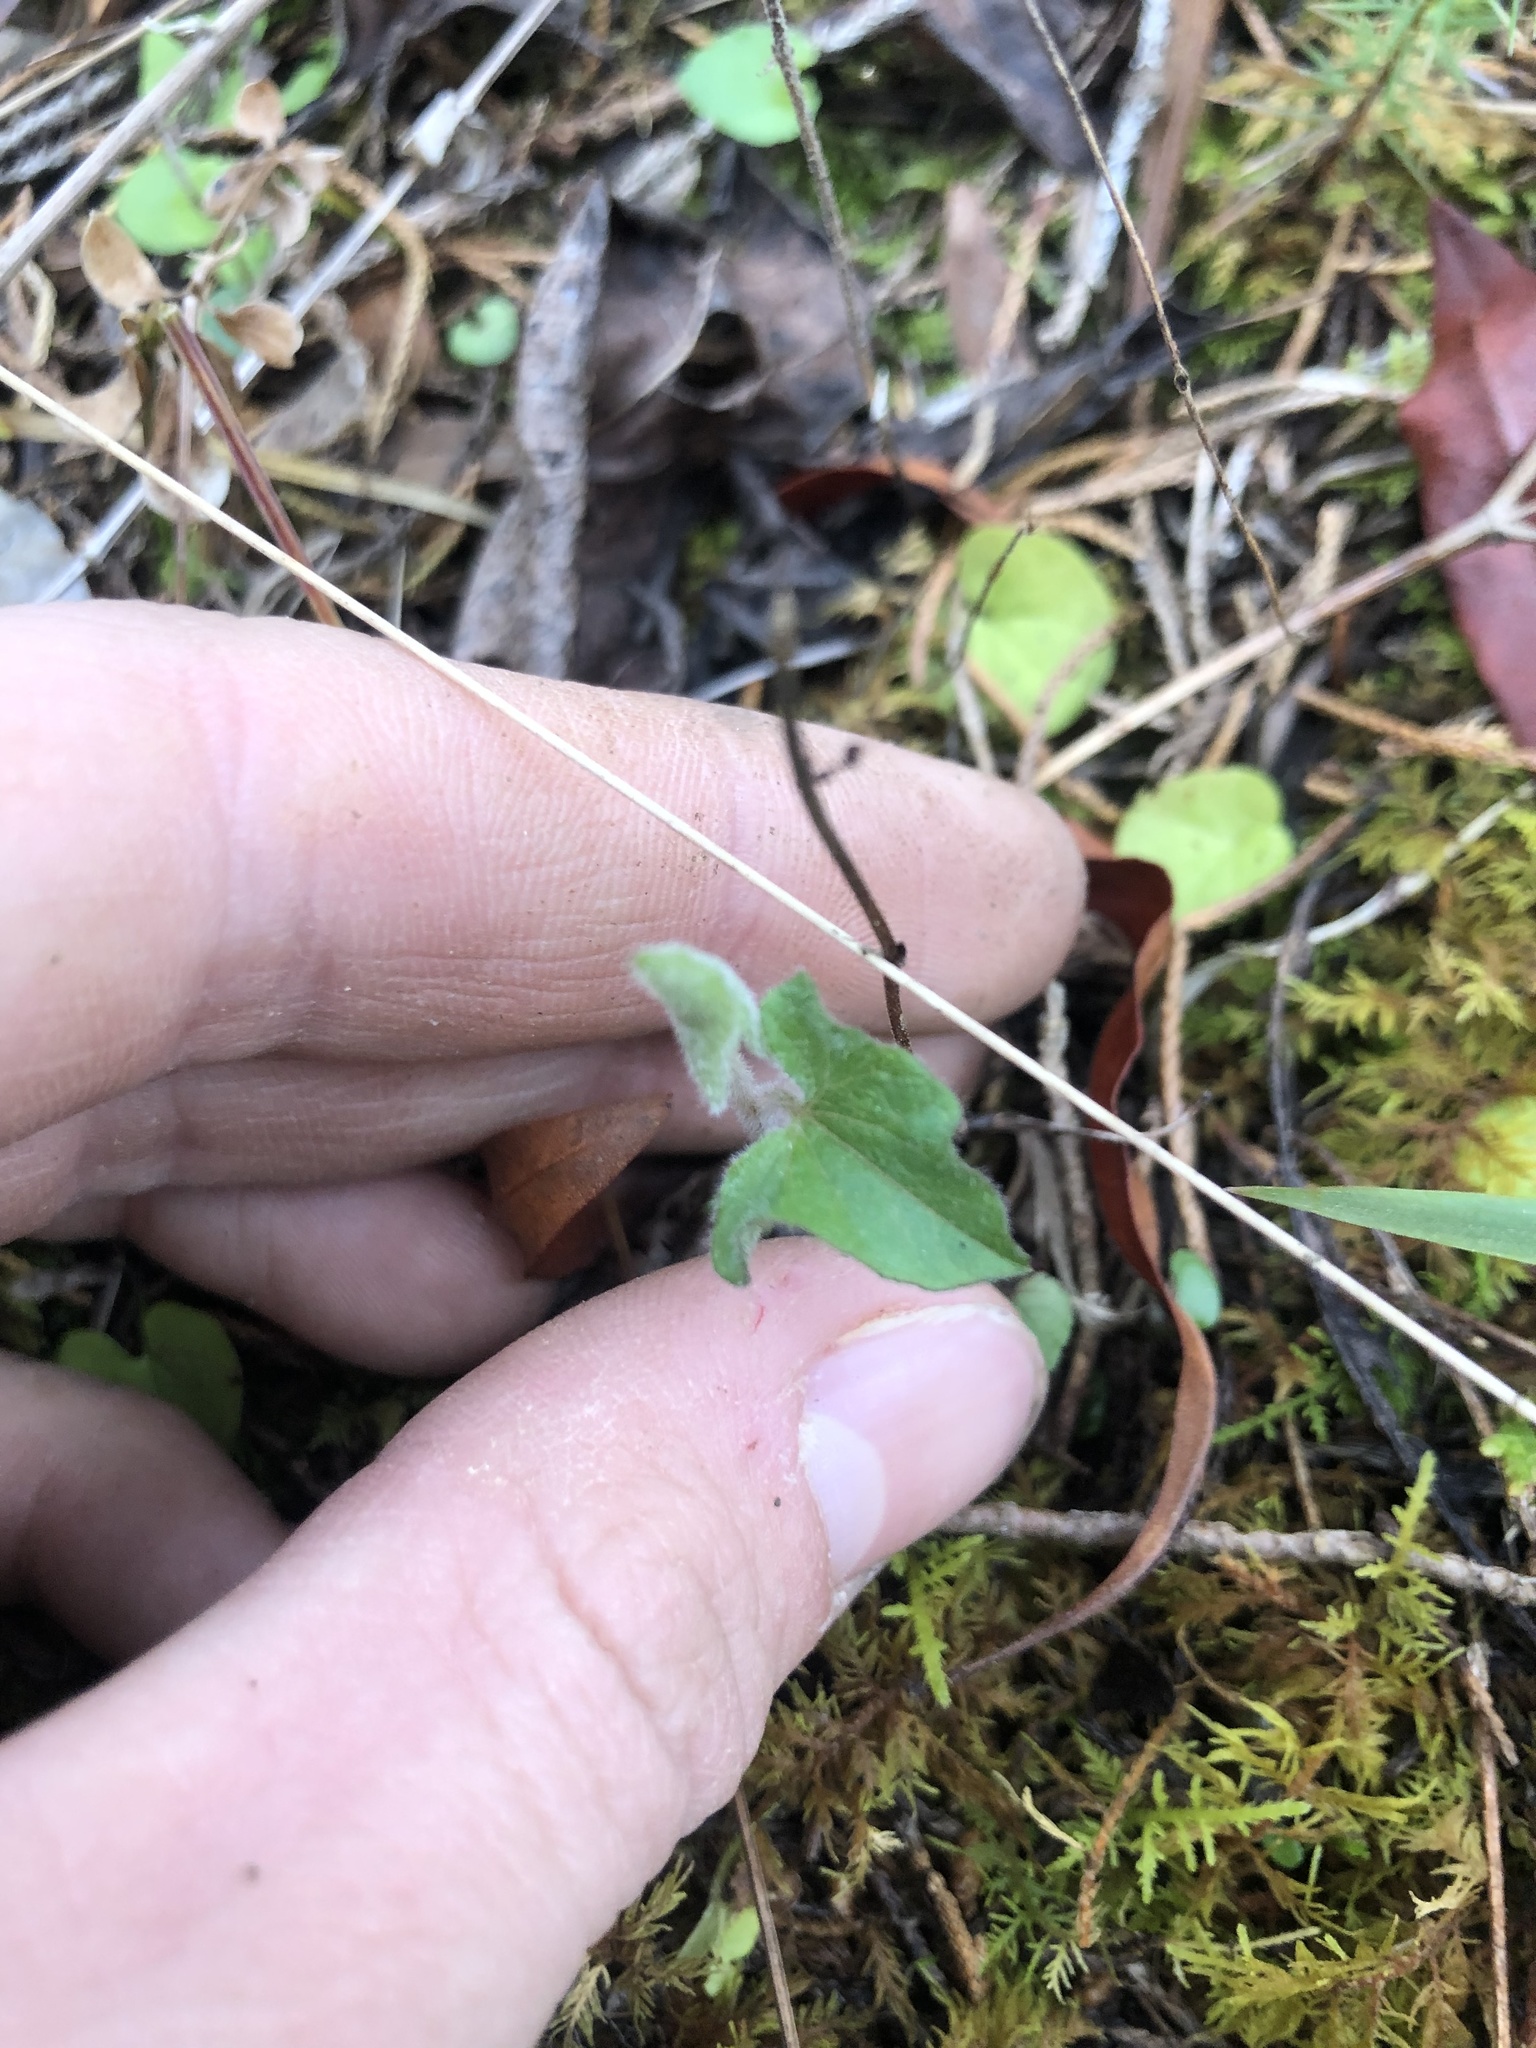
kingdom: Plantae
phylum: Tracheophyta
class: Magnoliopsida
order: Solanales
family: Convolvulaceae
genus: Calystegia
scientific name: Calystegia catesbeiana
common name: Catesby's false bindweed
